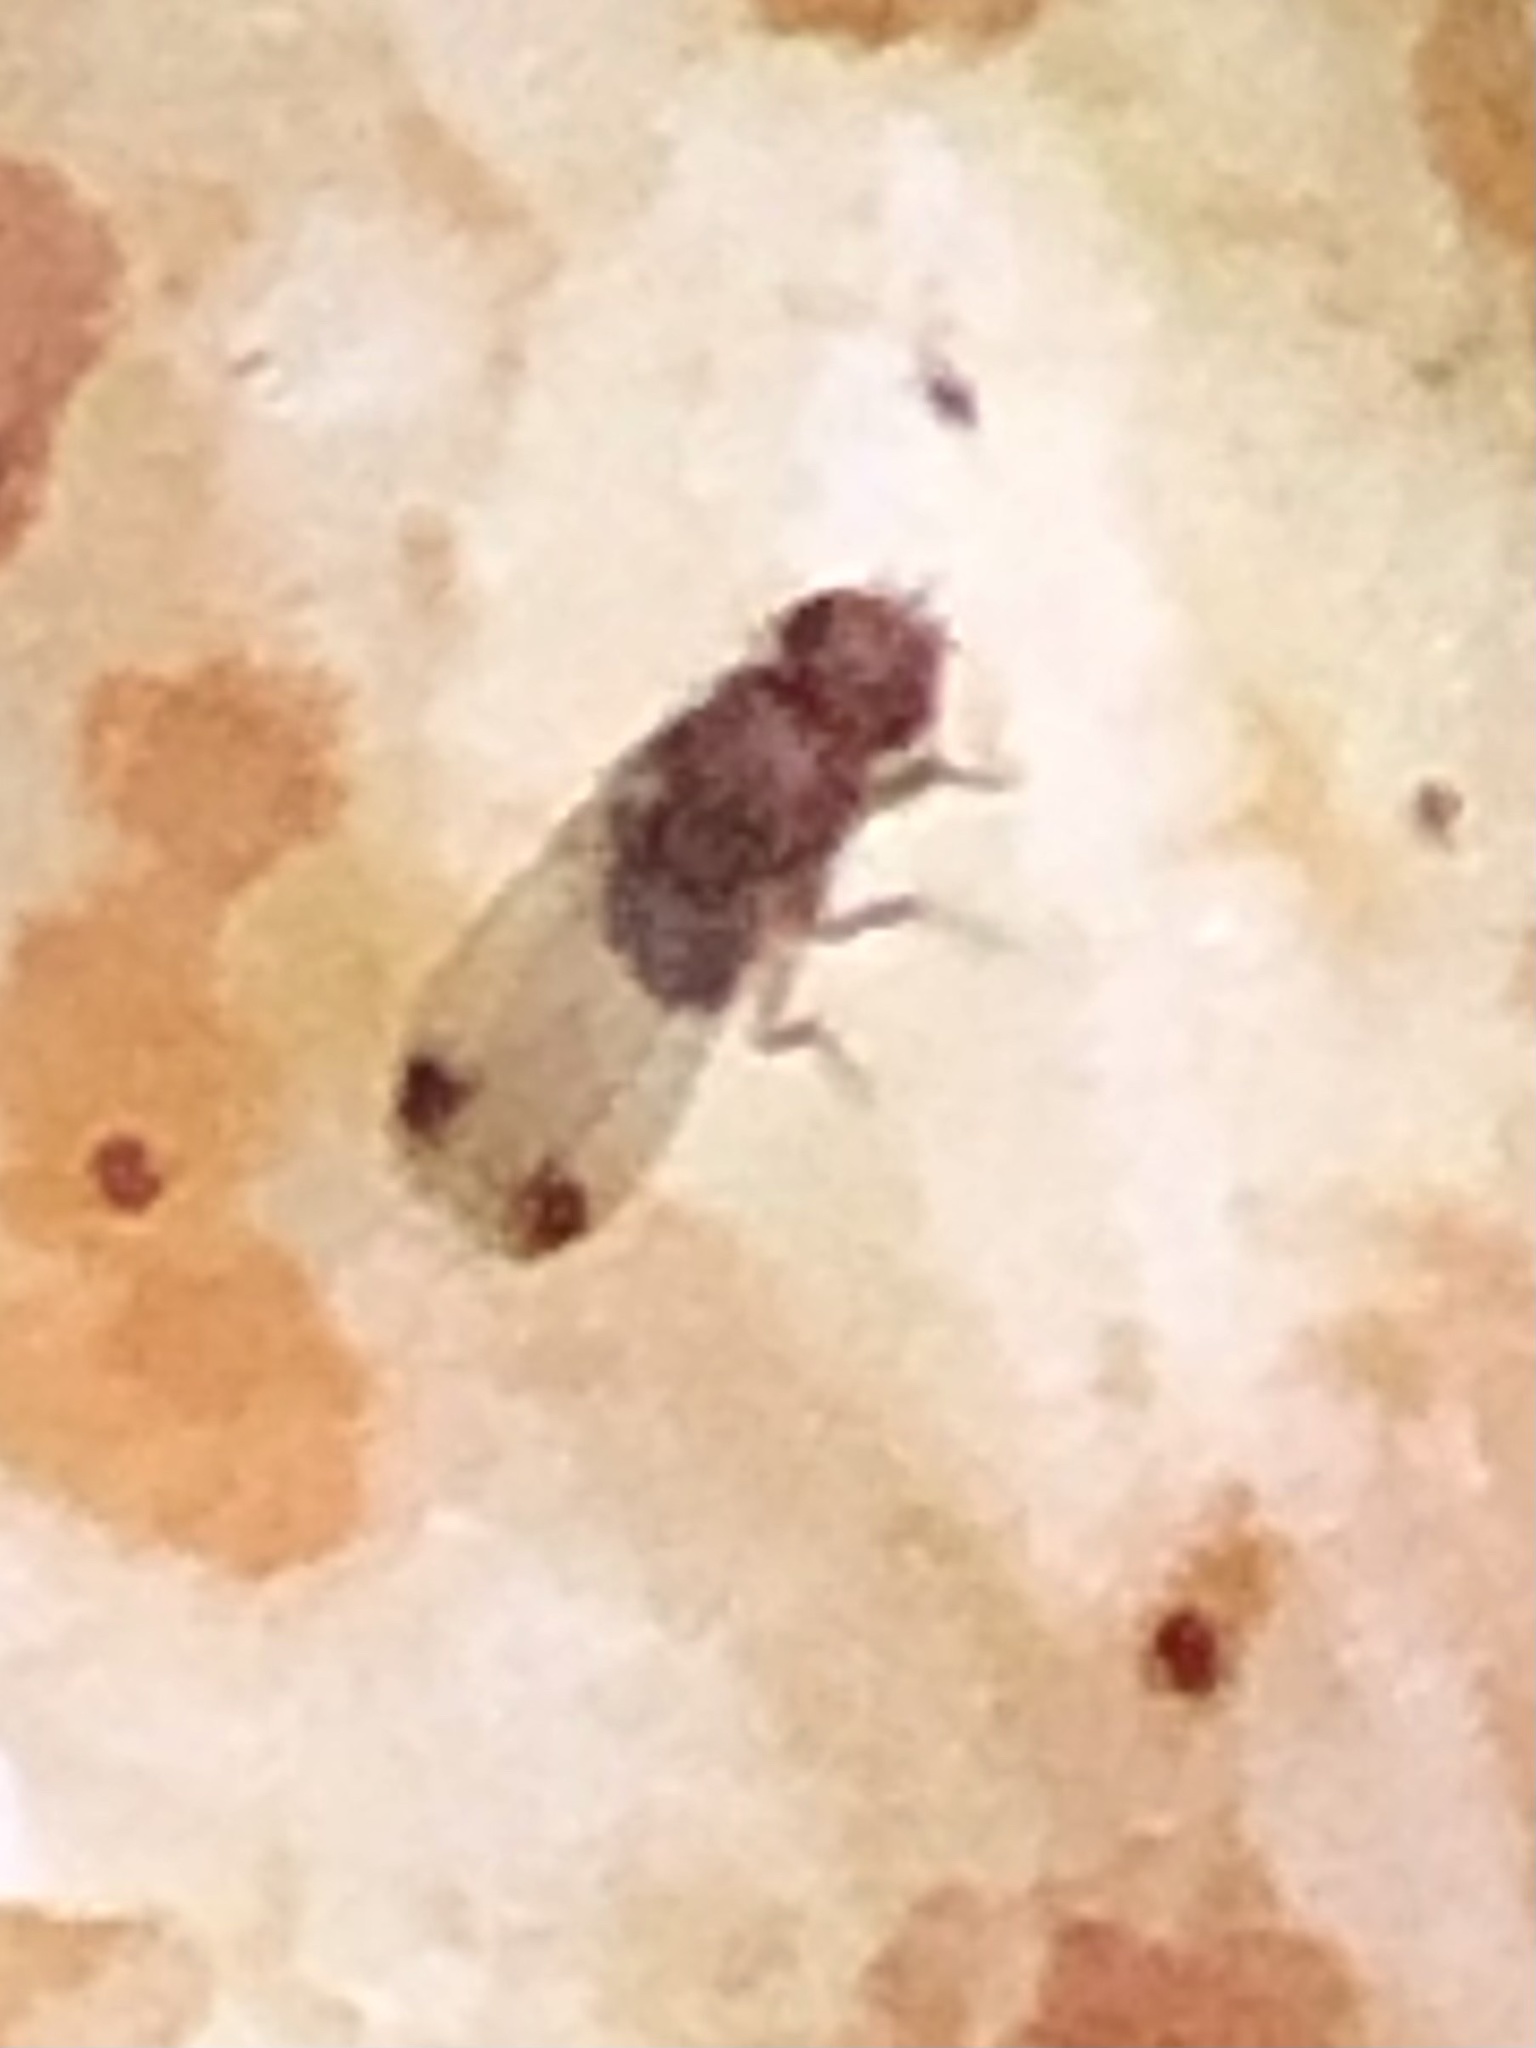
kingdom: Animalia
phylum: Arthropoda
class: Insecta
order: Diptera
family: Drosophilidae
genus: Drosophila
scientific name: Drosophila suzukii
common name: Spotted-wing drosophila
